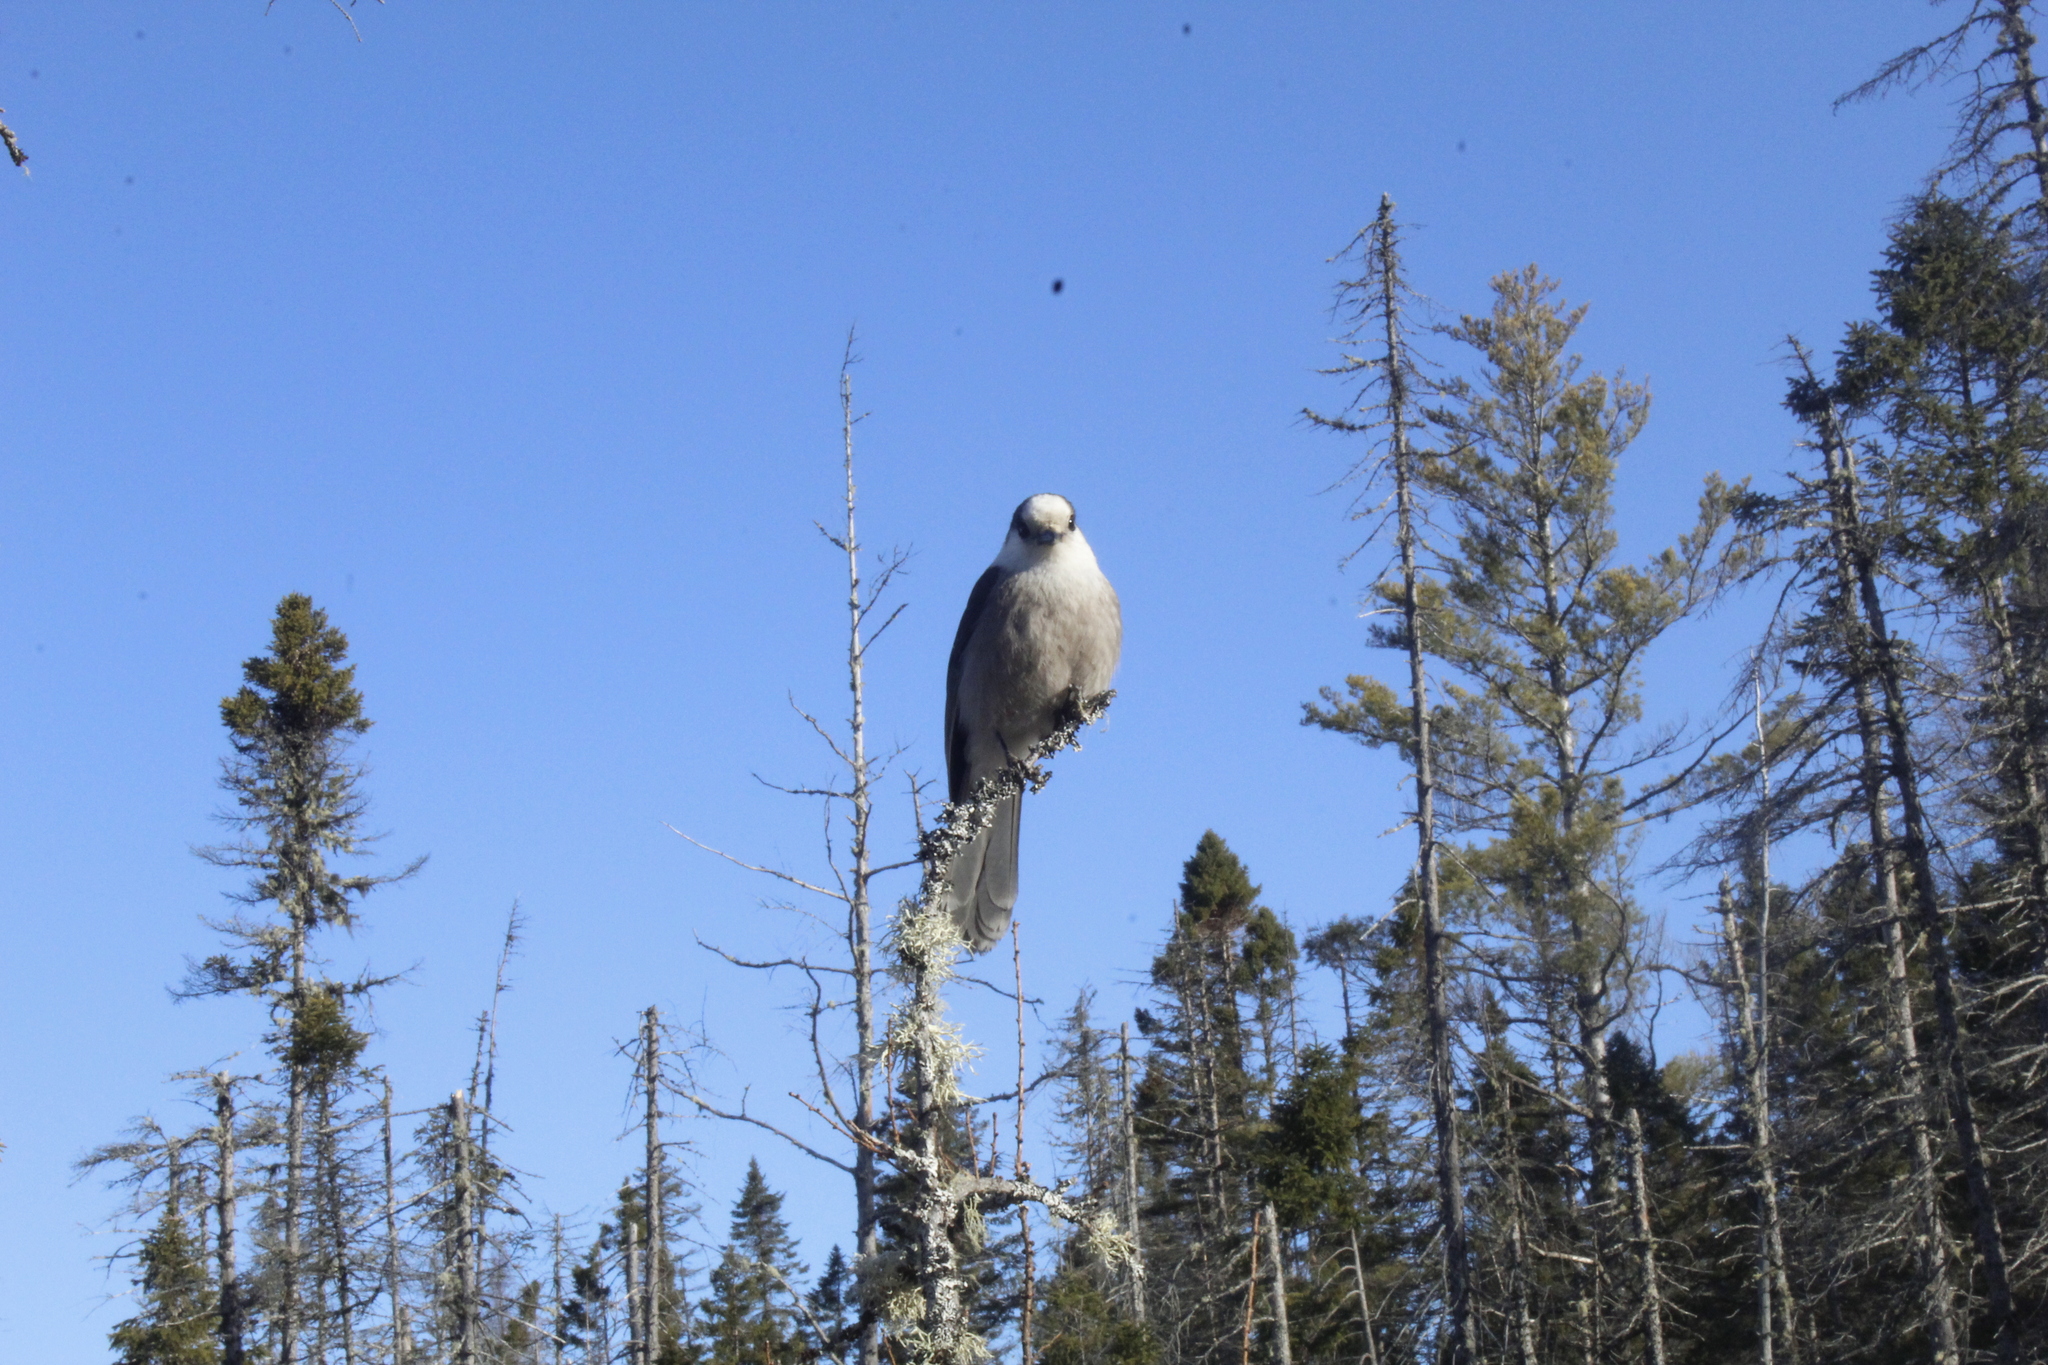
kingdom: Animalia
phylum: Chordata
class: Aves
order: Passeriformes
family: Corvidae
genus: Perisoreus
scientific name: Perisoreus canadensis
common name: Gray jay
